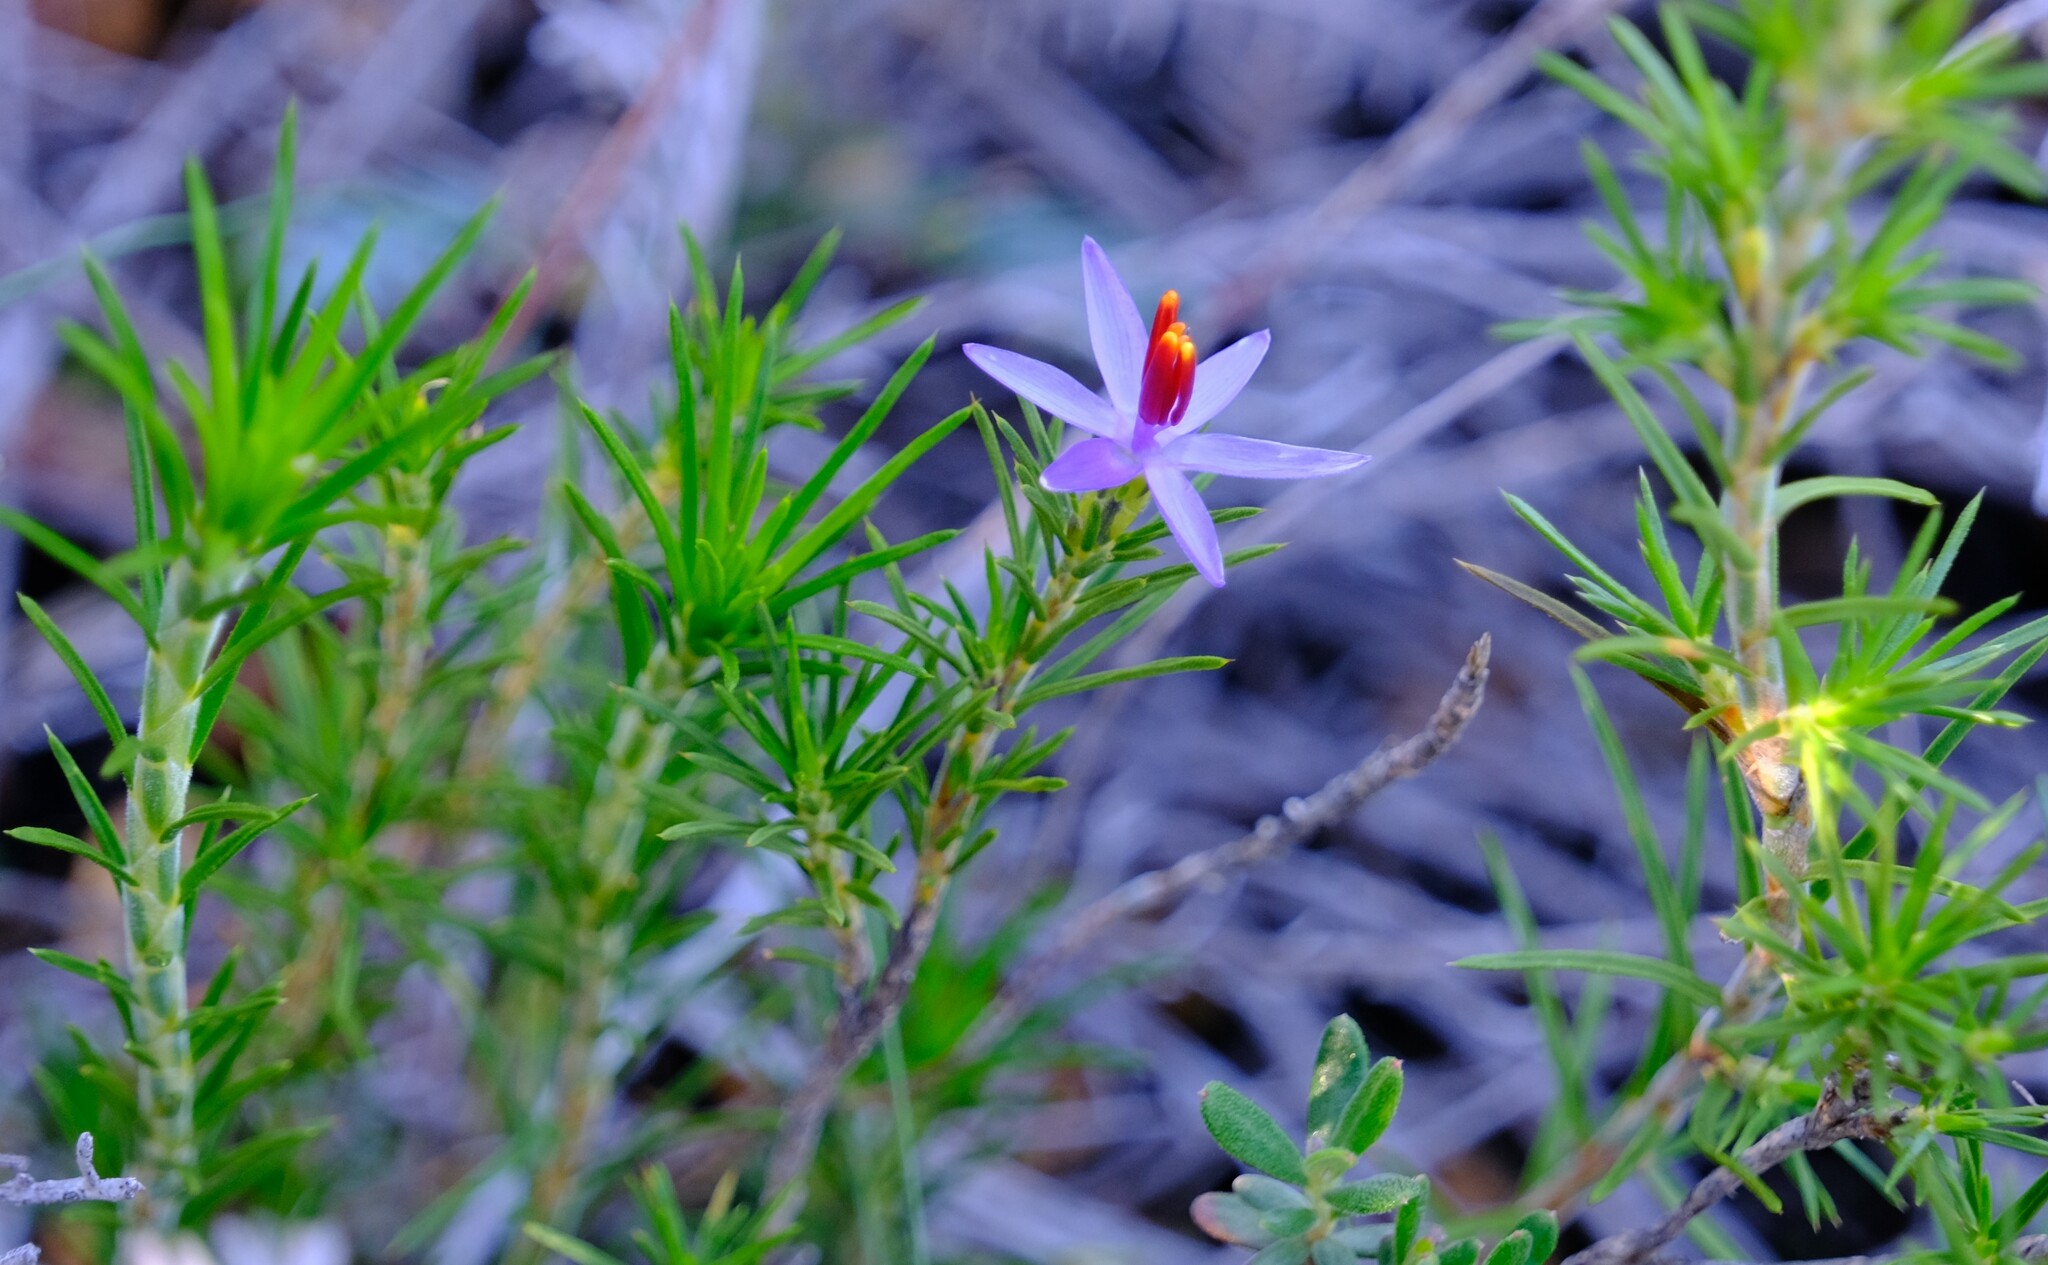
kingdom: Plantae
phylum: Tracheophyta
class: Liliopsida
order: Arecales
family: Dasypogonaceae
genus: Calectasia
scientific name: Calectasia narragara
